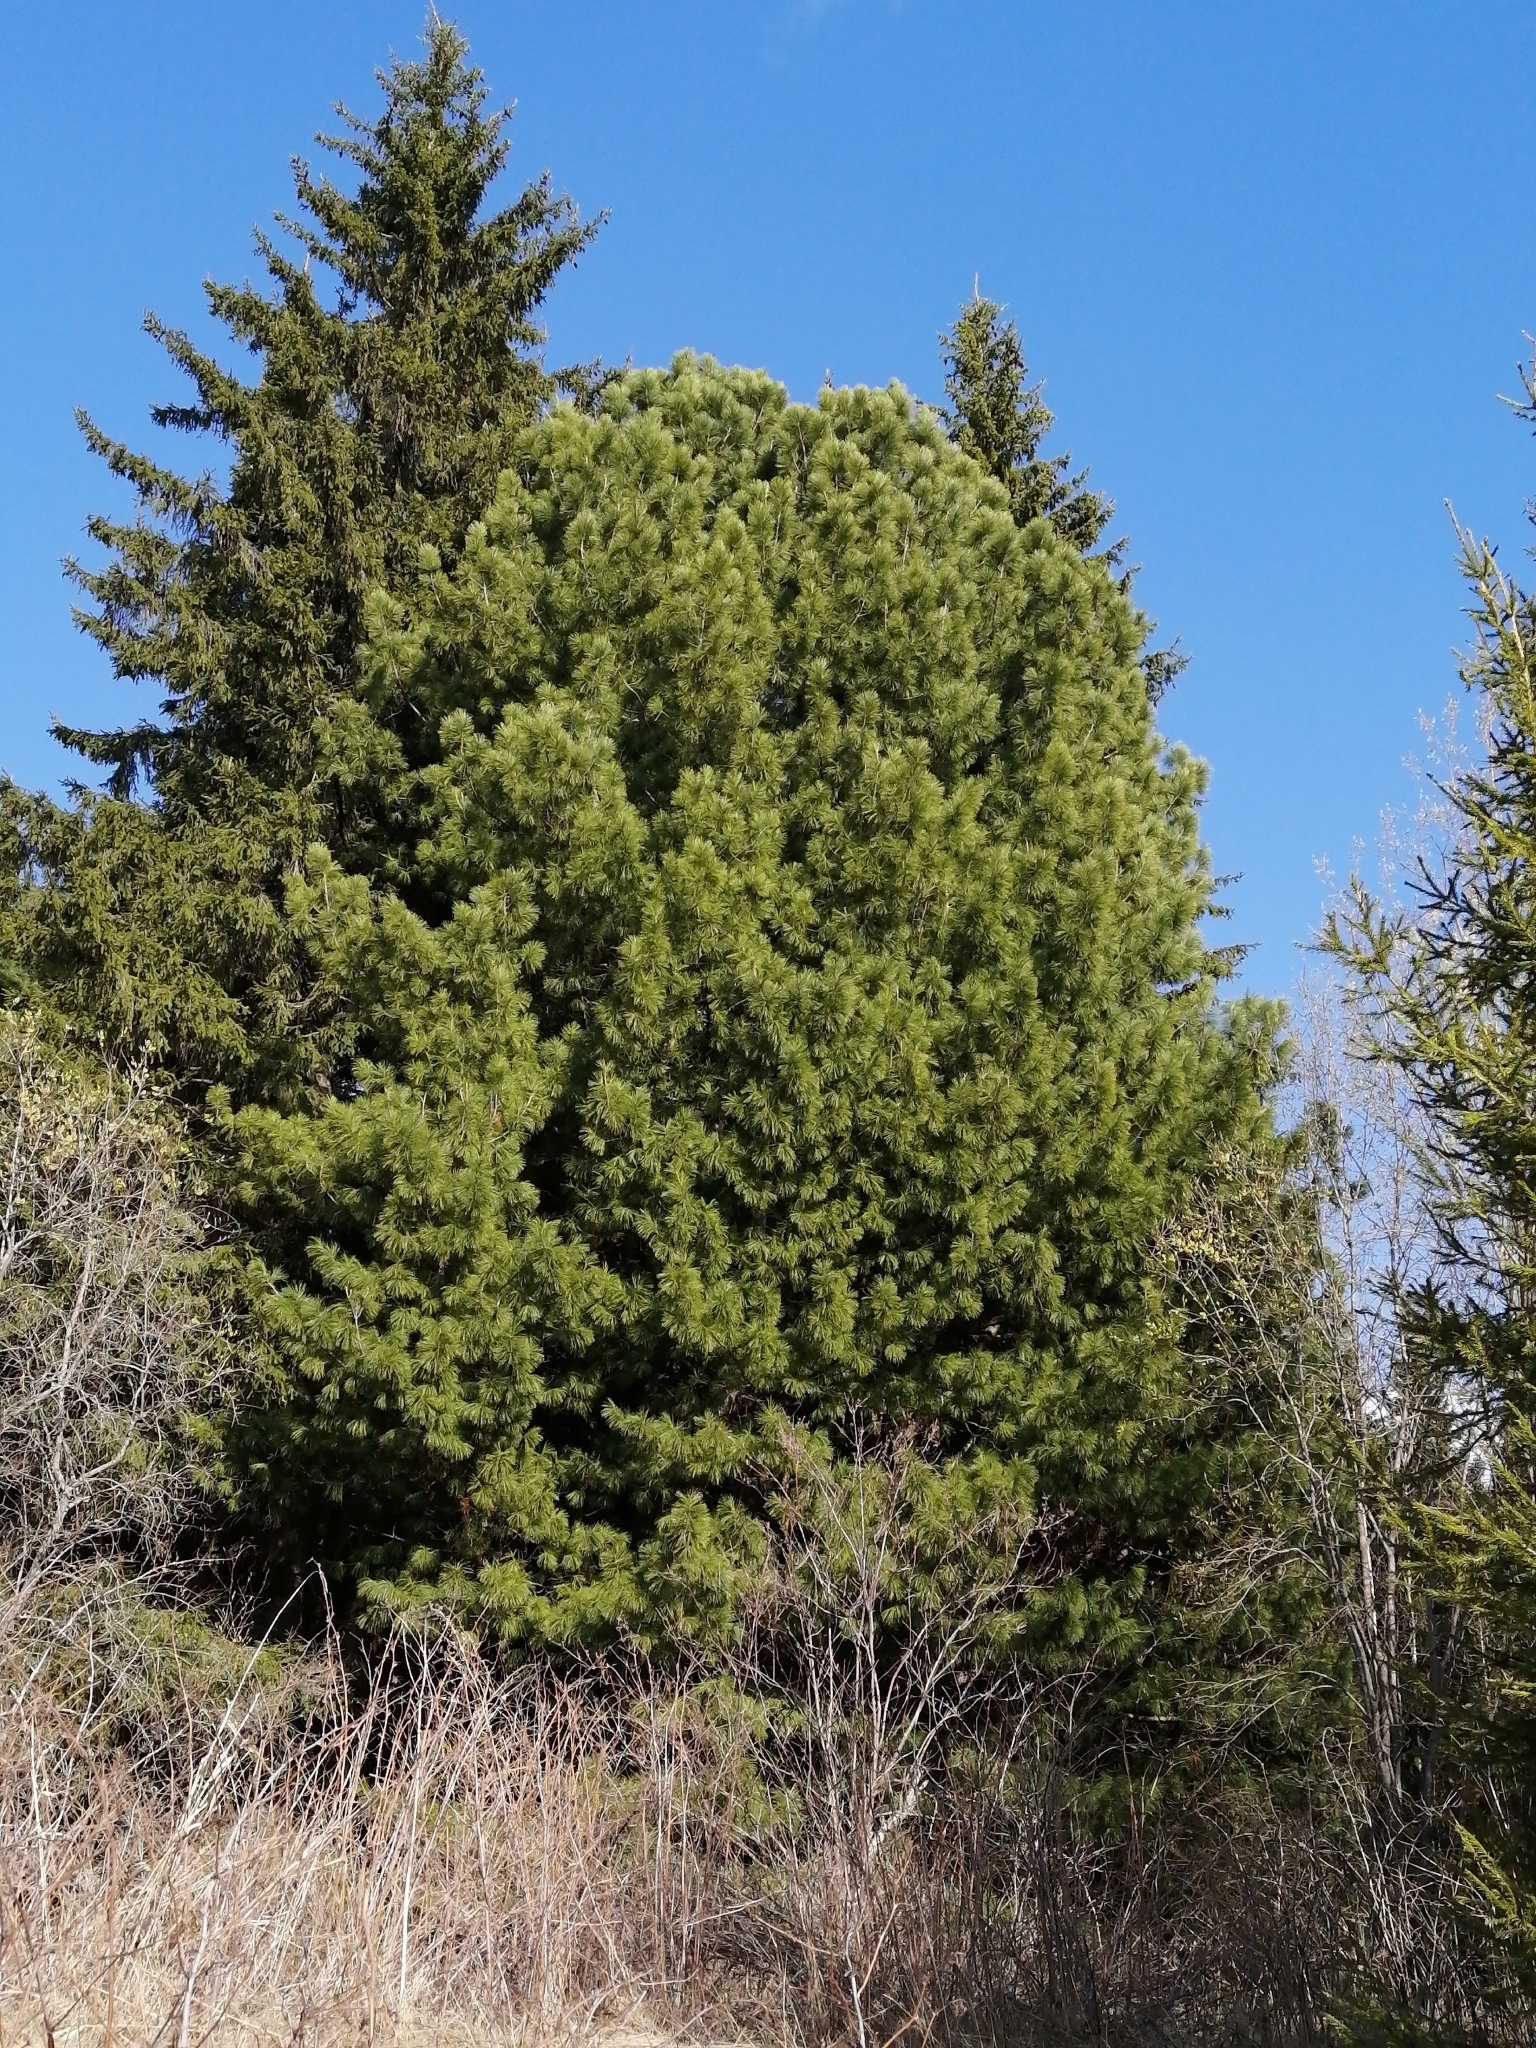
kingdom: Plantae
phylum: Tracheophyta
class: Pinopsida
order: Pinales
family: Pinaceae
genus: Pinus
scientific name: Pinus sibirica
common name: Siberian pine
